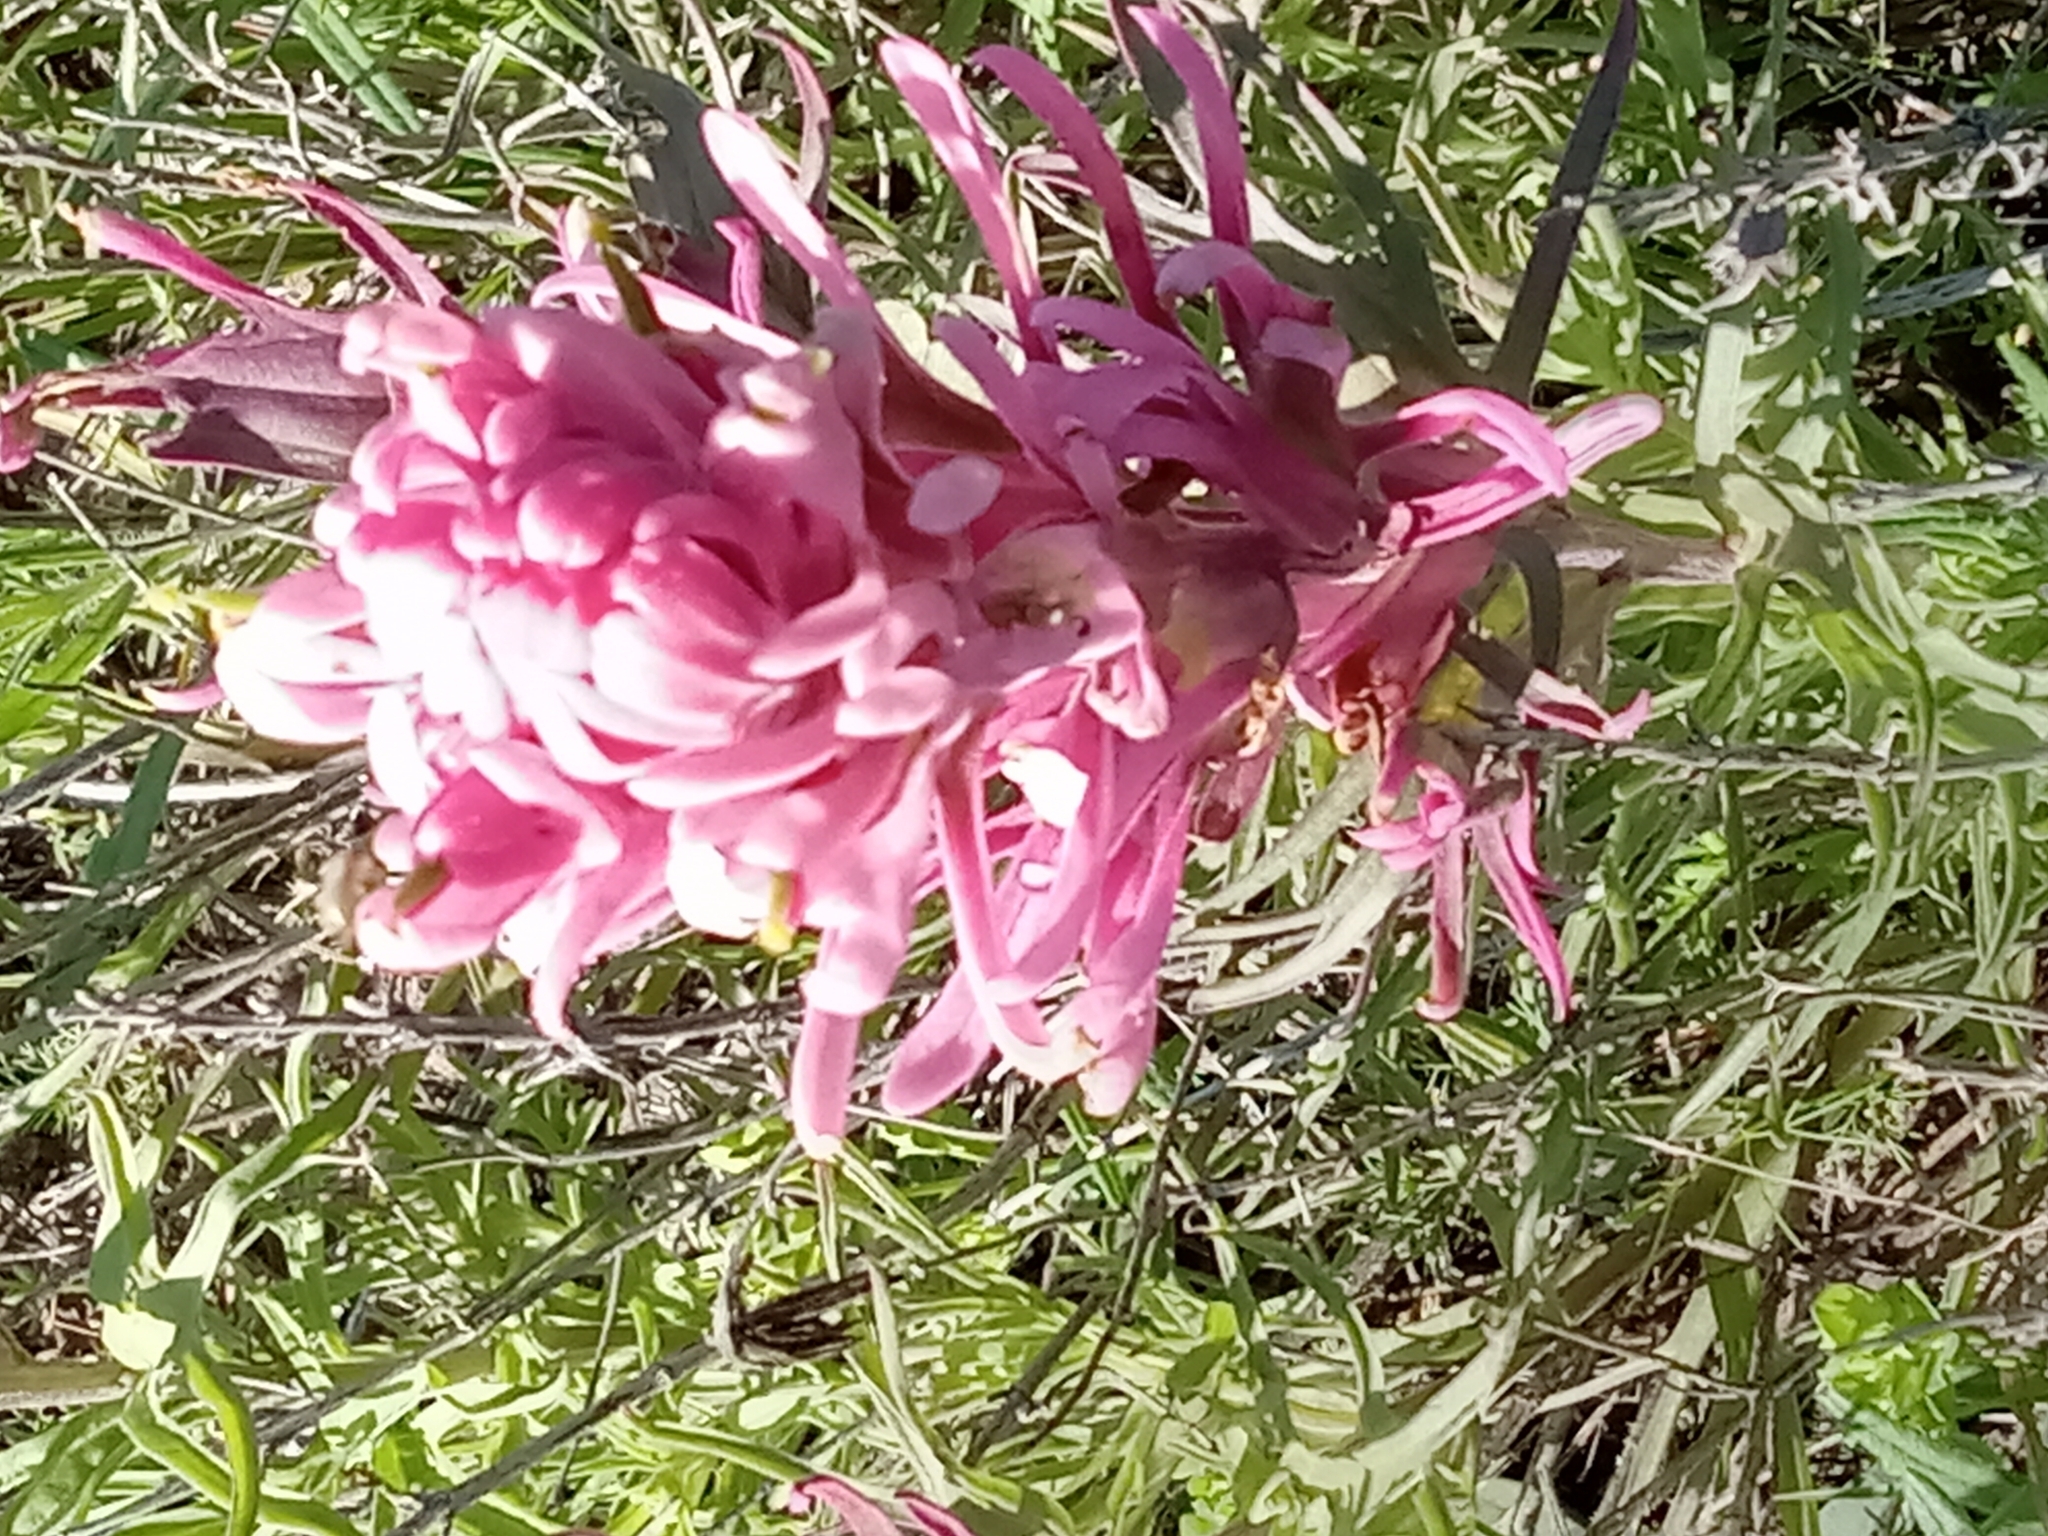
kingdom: Plantae
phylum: Tracheophyta
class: Magnoliopsida
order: Lamiales
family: Orobanchaceae
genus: Castilleja
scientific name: Castilleja purpurea
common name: Plains paintbrush
